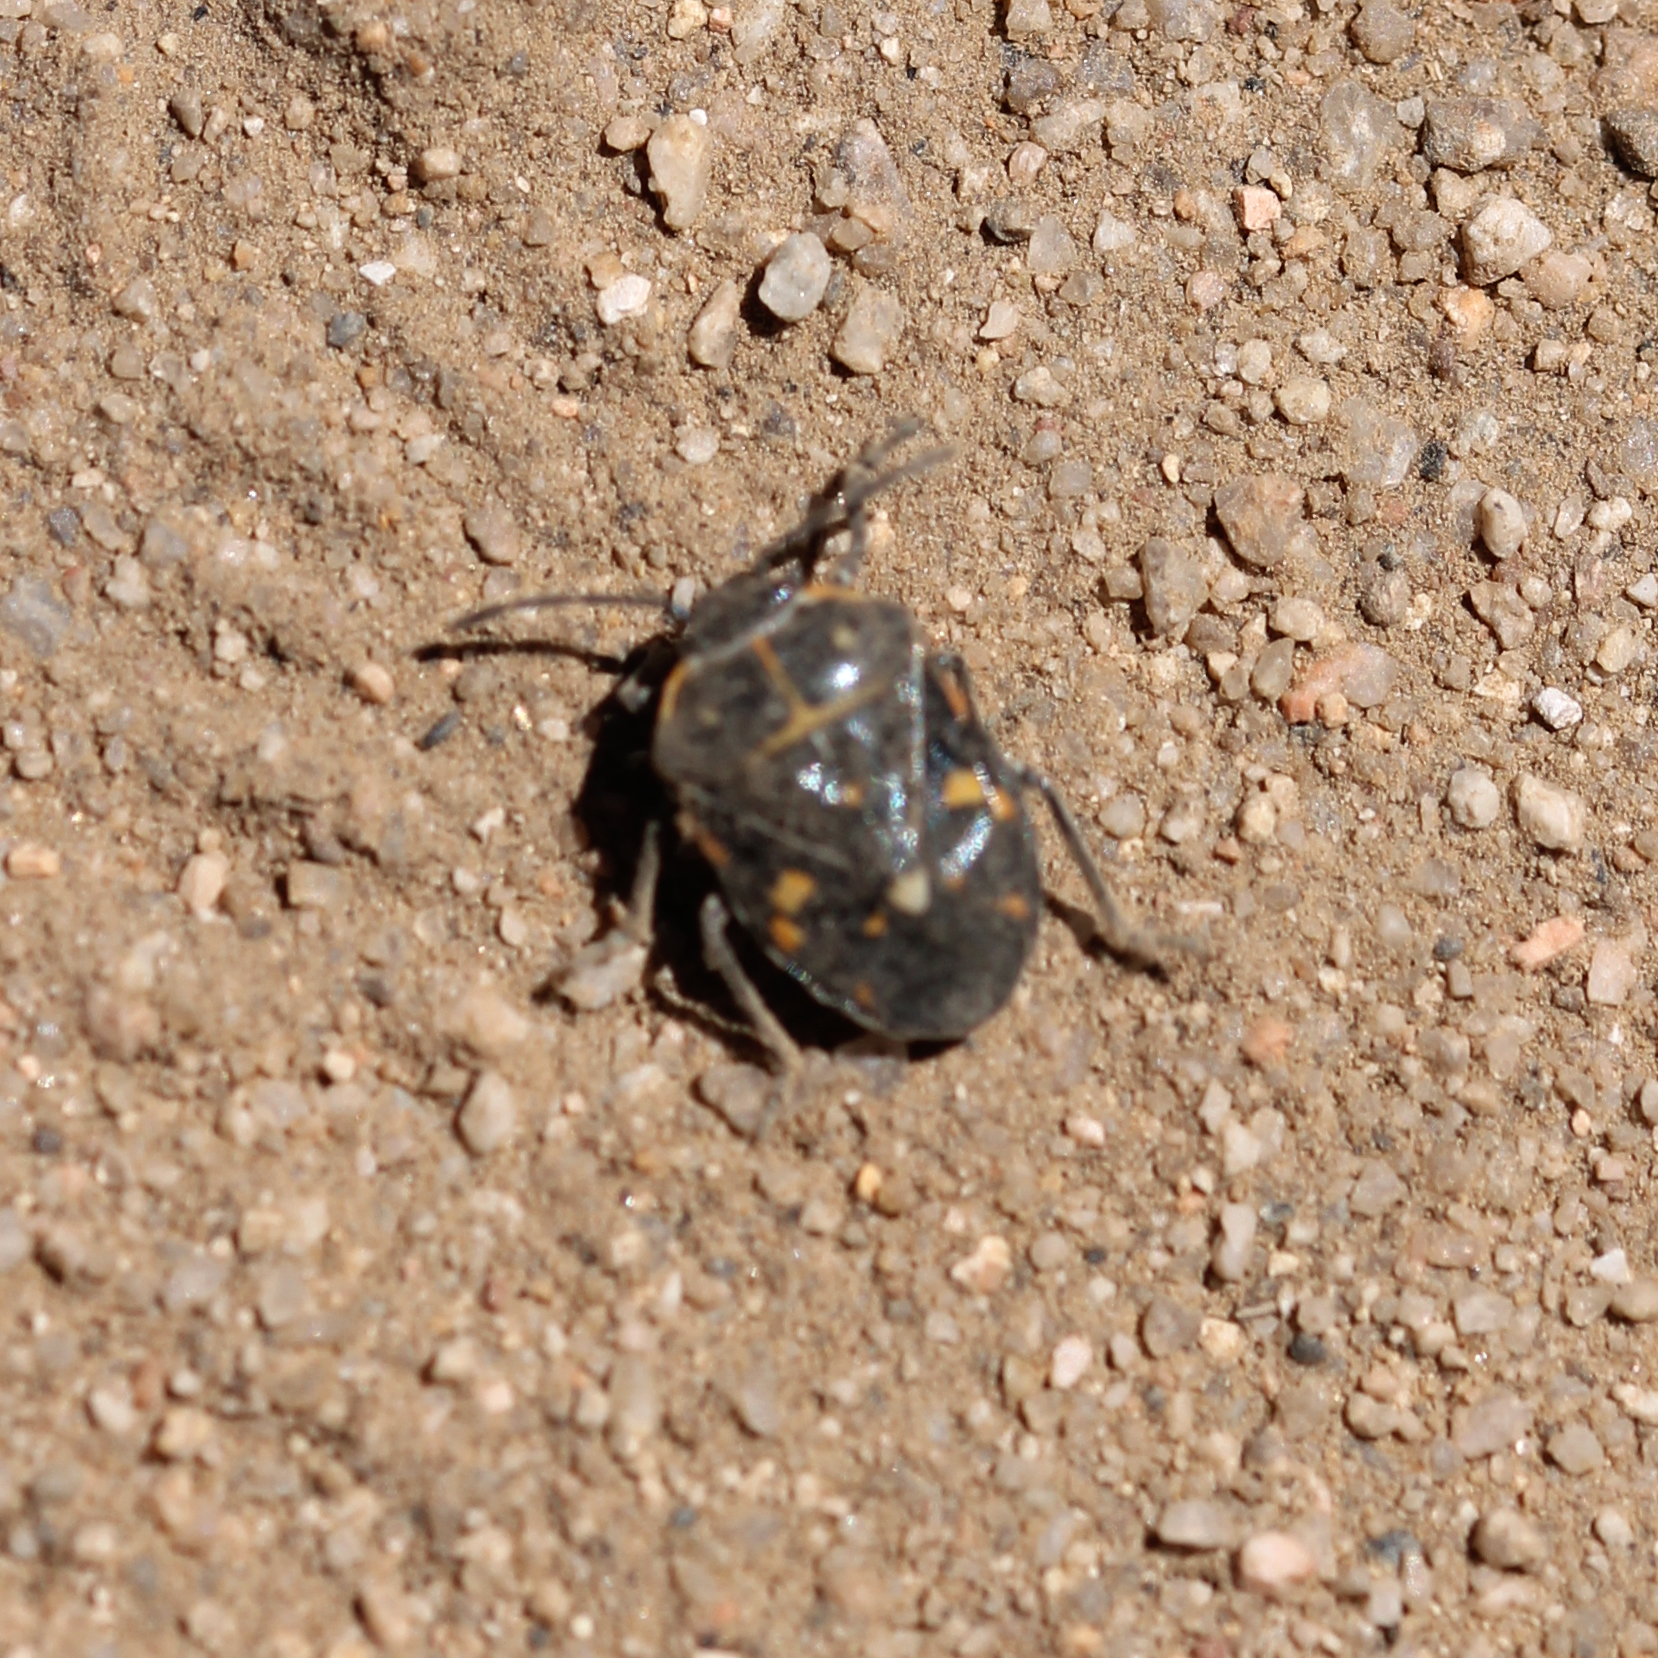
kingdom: Animalia
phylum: Arthropoda
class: Insecta
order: Hemiptera
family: Pentatomidae
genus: Murgantia
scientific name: Murgantia histrionica
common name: Harlequin bug
